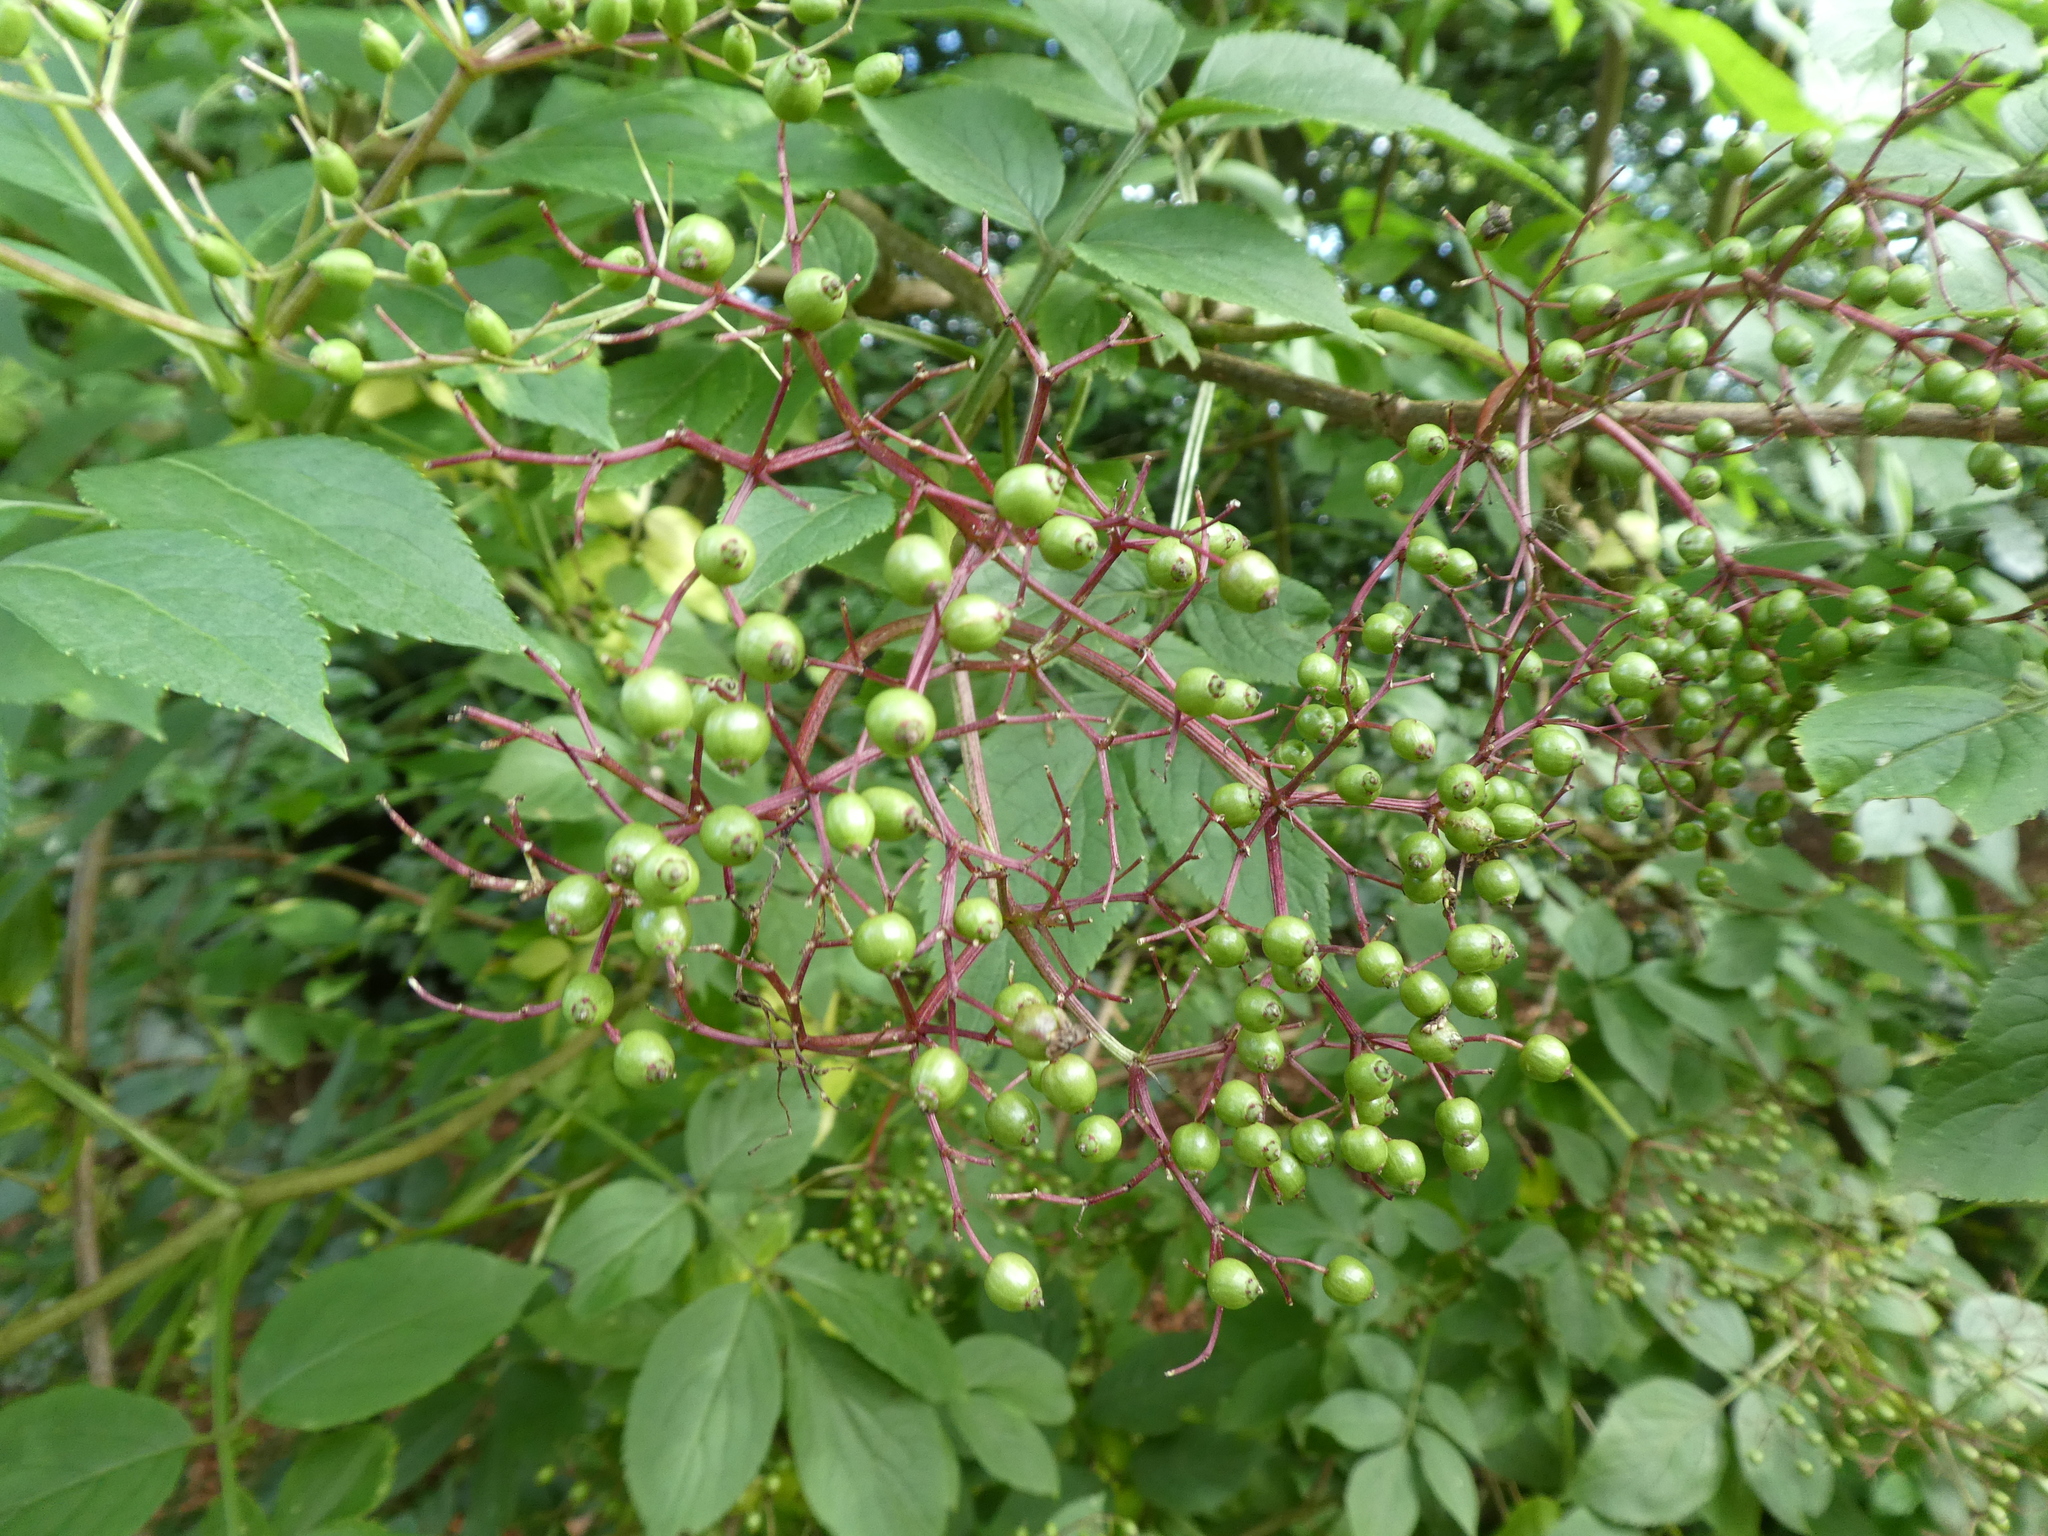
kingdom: Plantae
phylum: Tracheophyta
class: Magnoliopsida
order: Dipsacales
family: Viburnaceae
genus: Sambucus
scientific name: Sambucus nigra
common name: Elder
